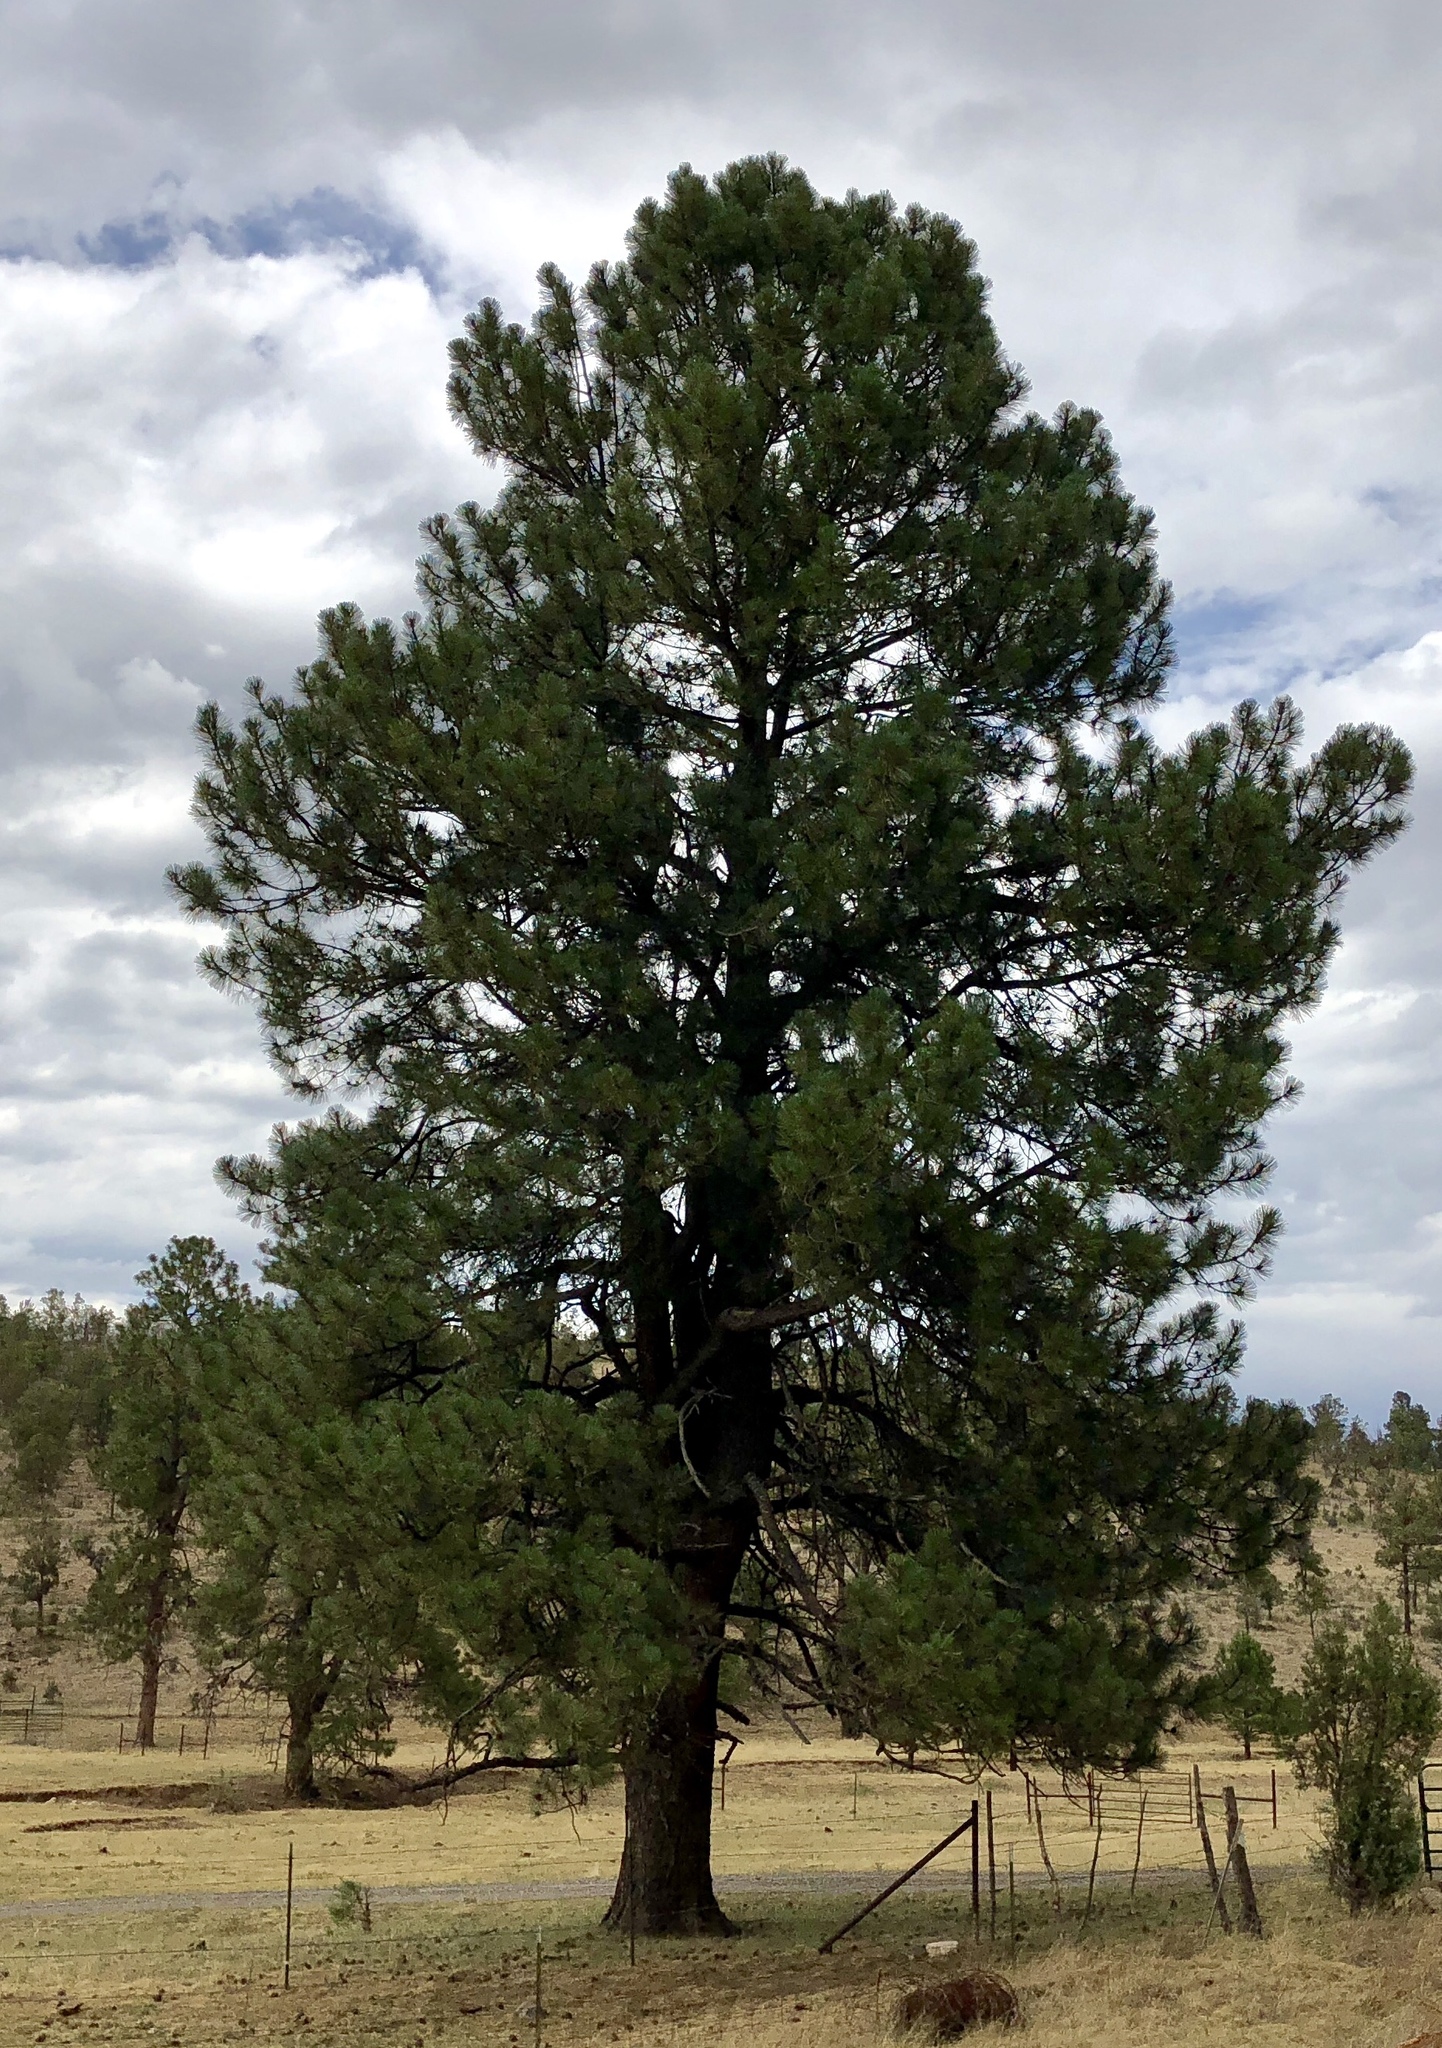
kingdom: Plantae
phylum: Tracheophyta
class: Pinopsida
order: Pinales
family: Pinaceae
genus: Pinus
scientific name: Pinus ponderosa
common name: Western yellow-pine
